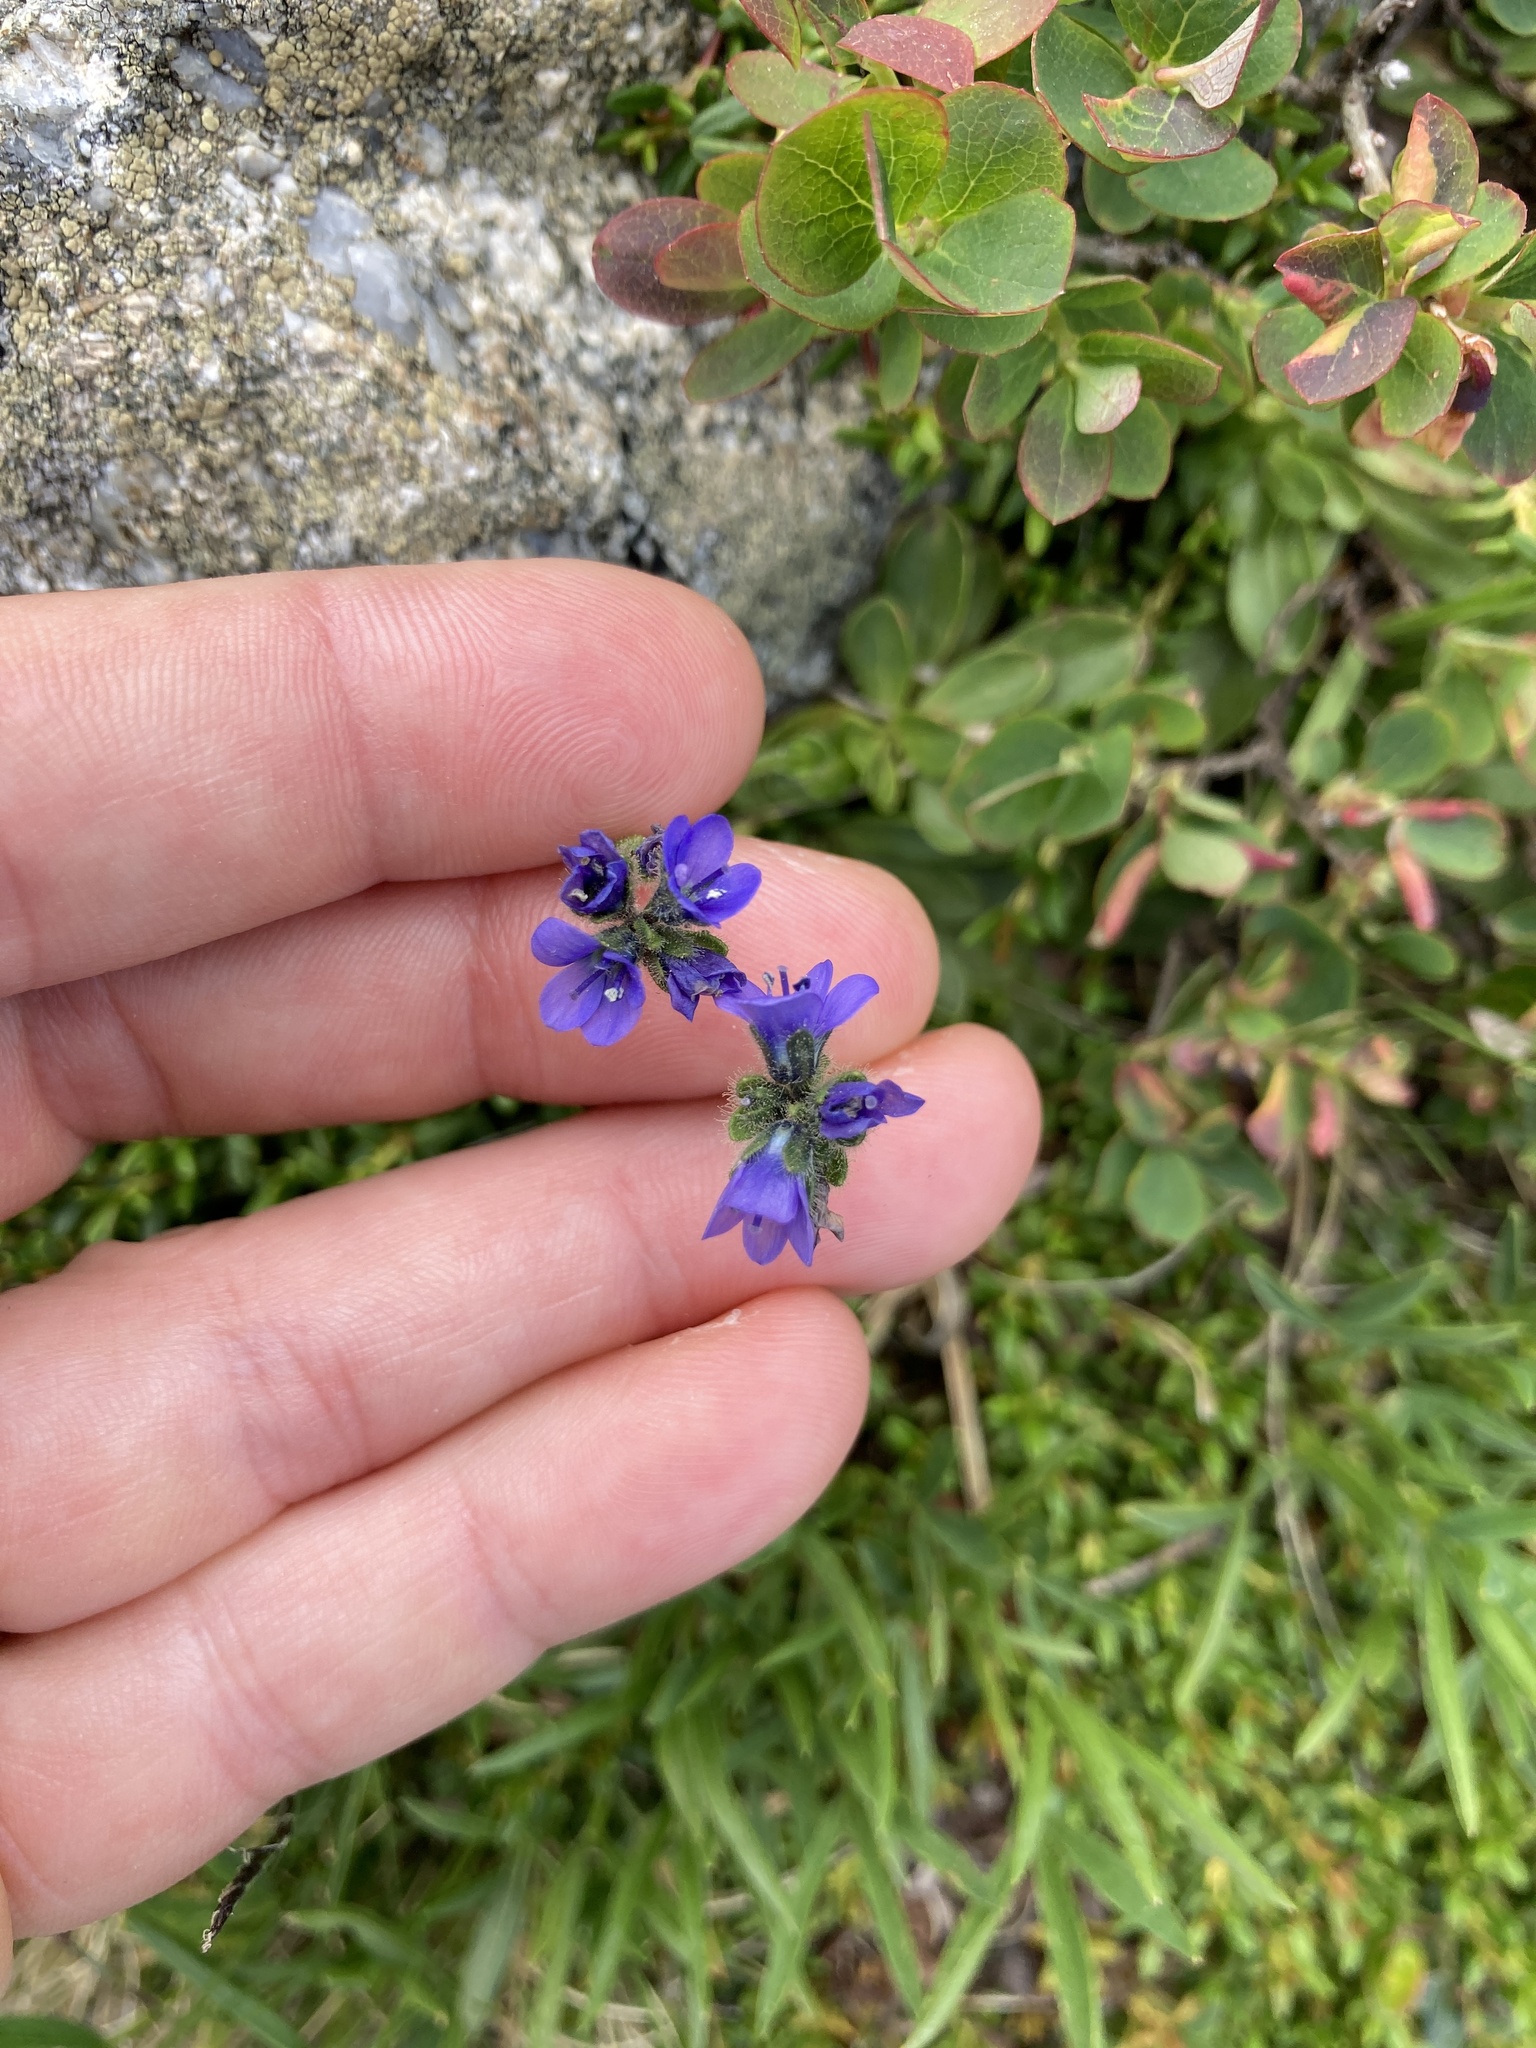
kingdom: Plantae
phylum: Tracheophyta
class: Magnoliopsida
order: Lamiales
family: Plantaginaceae
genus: Veronica
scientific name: Veronica bellidioides
